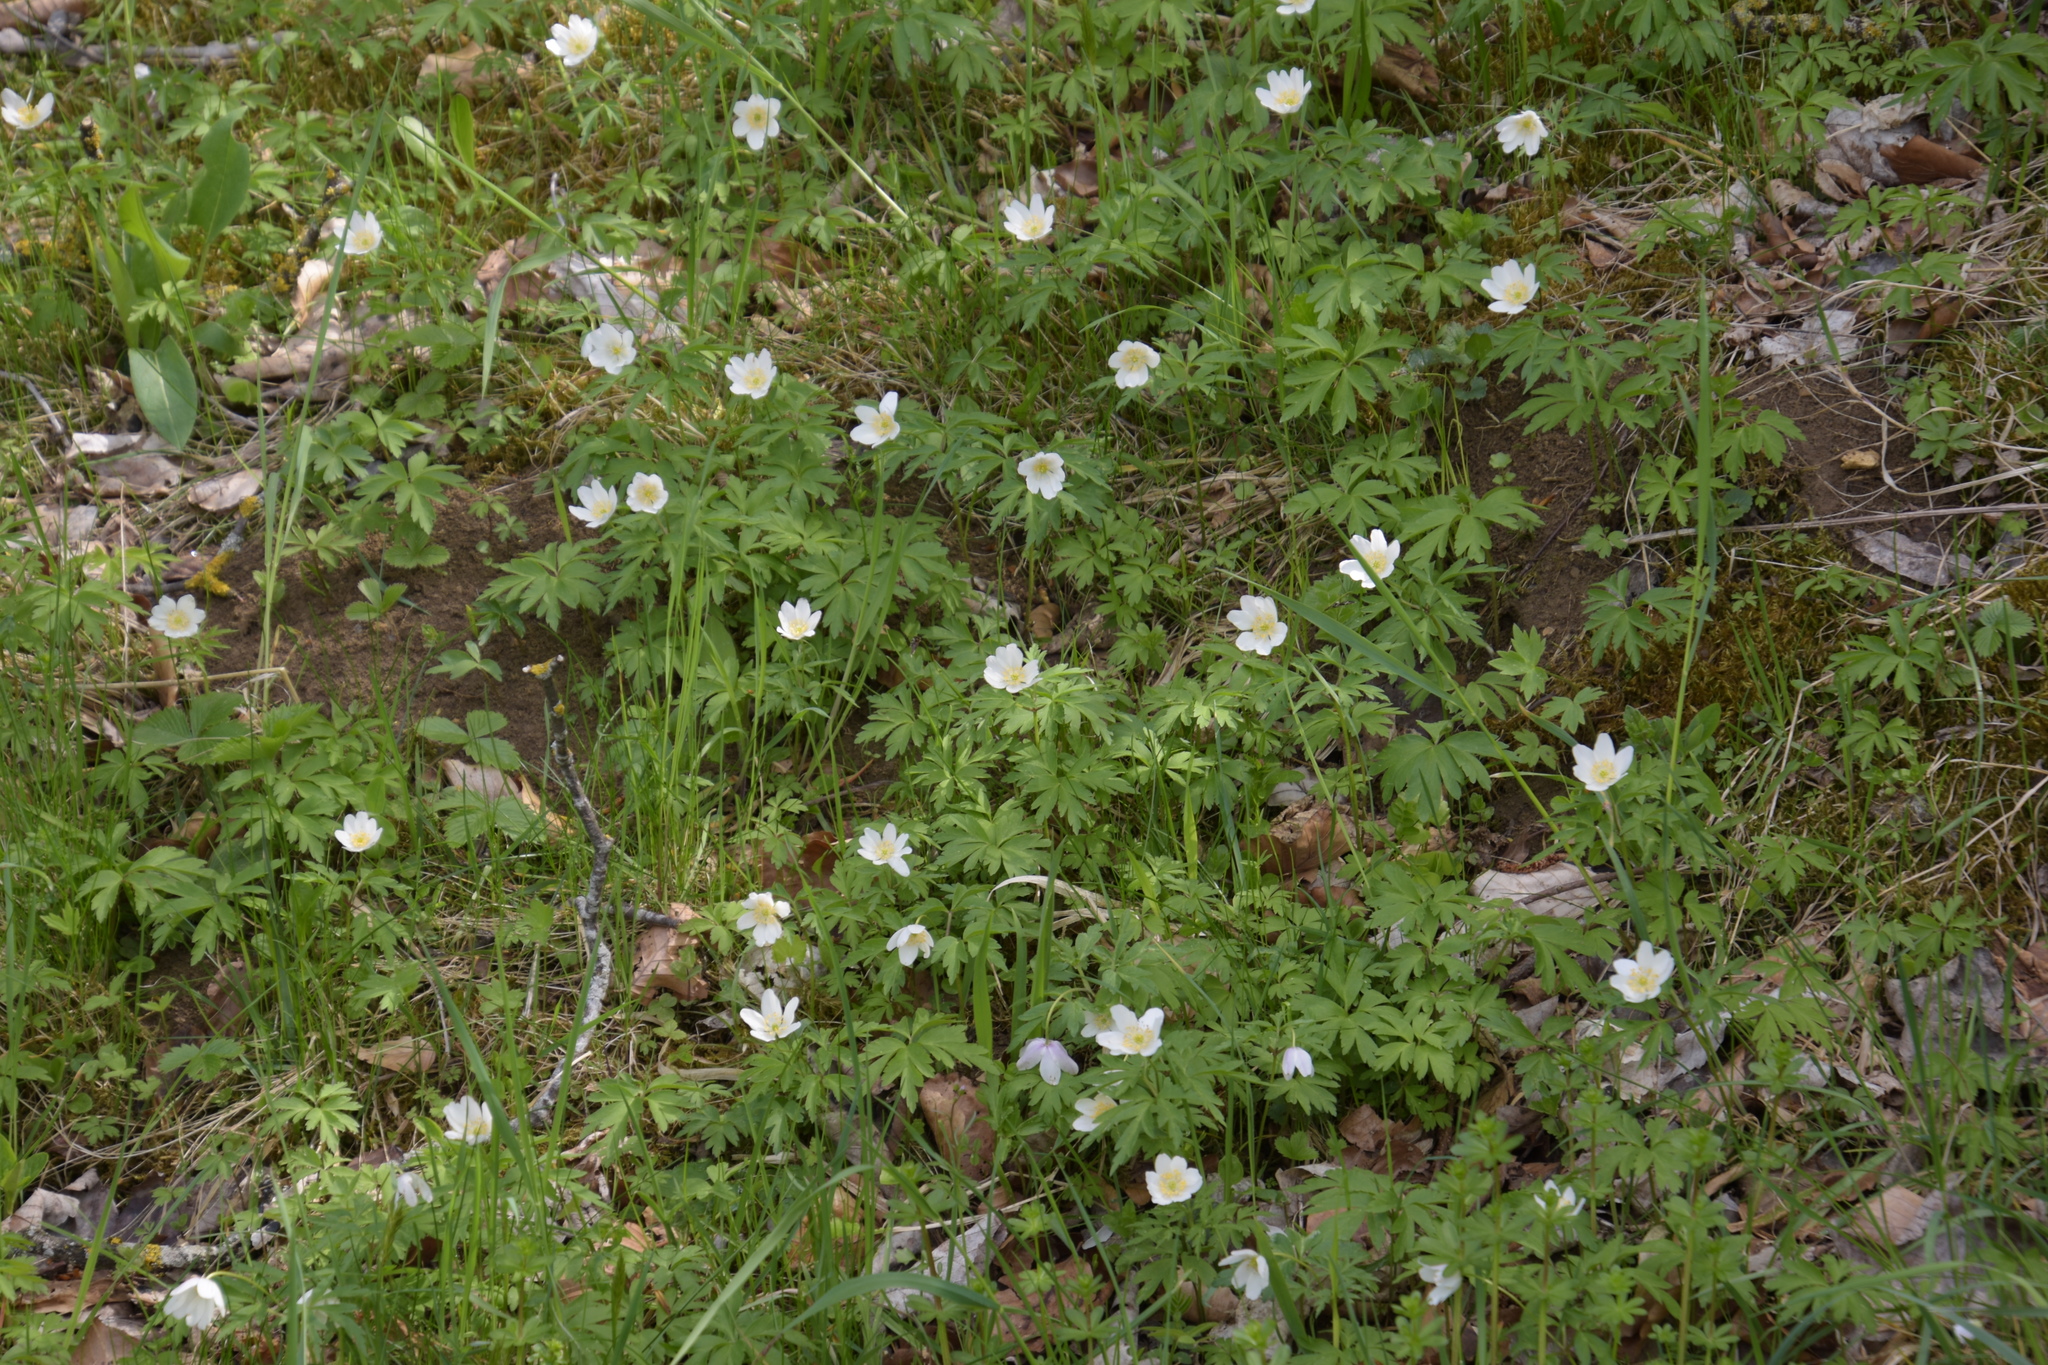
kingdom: Plantae
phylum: Tracheophyta
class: Magnoliopsida
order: Ranunculales
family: Ranunculaceae
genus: Anemone
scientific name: Anemone nemorosa
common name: Wood anemone
